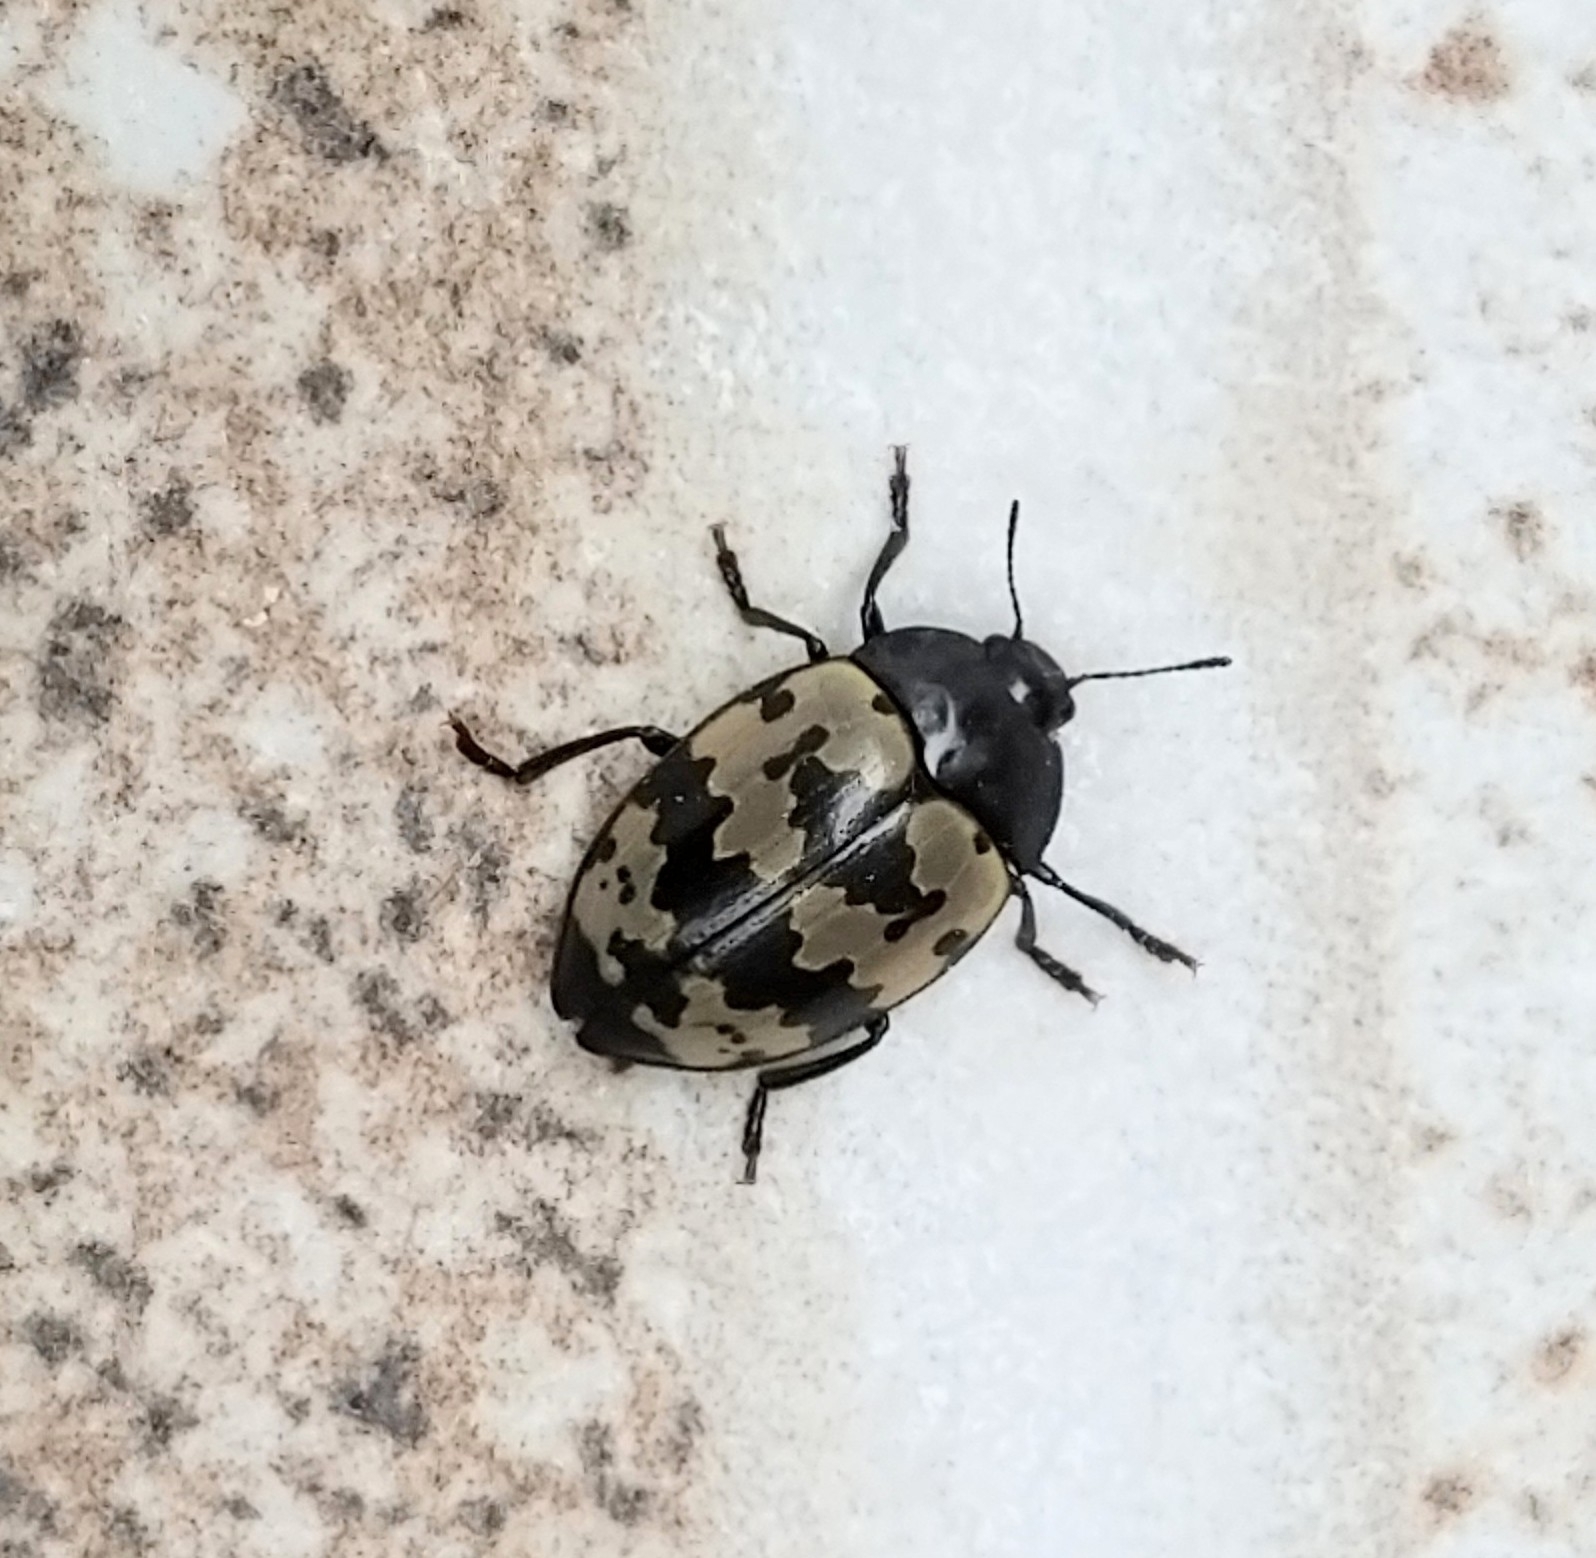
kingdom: Animalia
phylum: Arthropoda
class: Insecta
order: Coleoptera
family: Erotylidae
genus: Iphiclus
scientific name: Iphiclus
